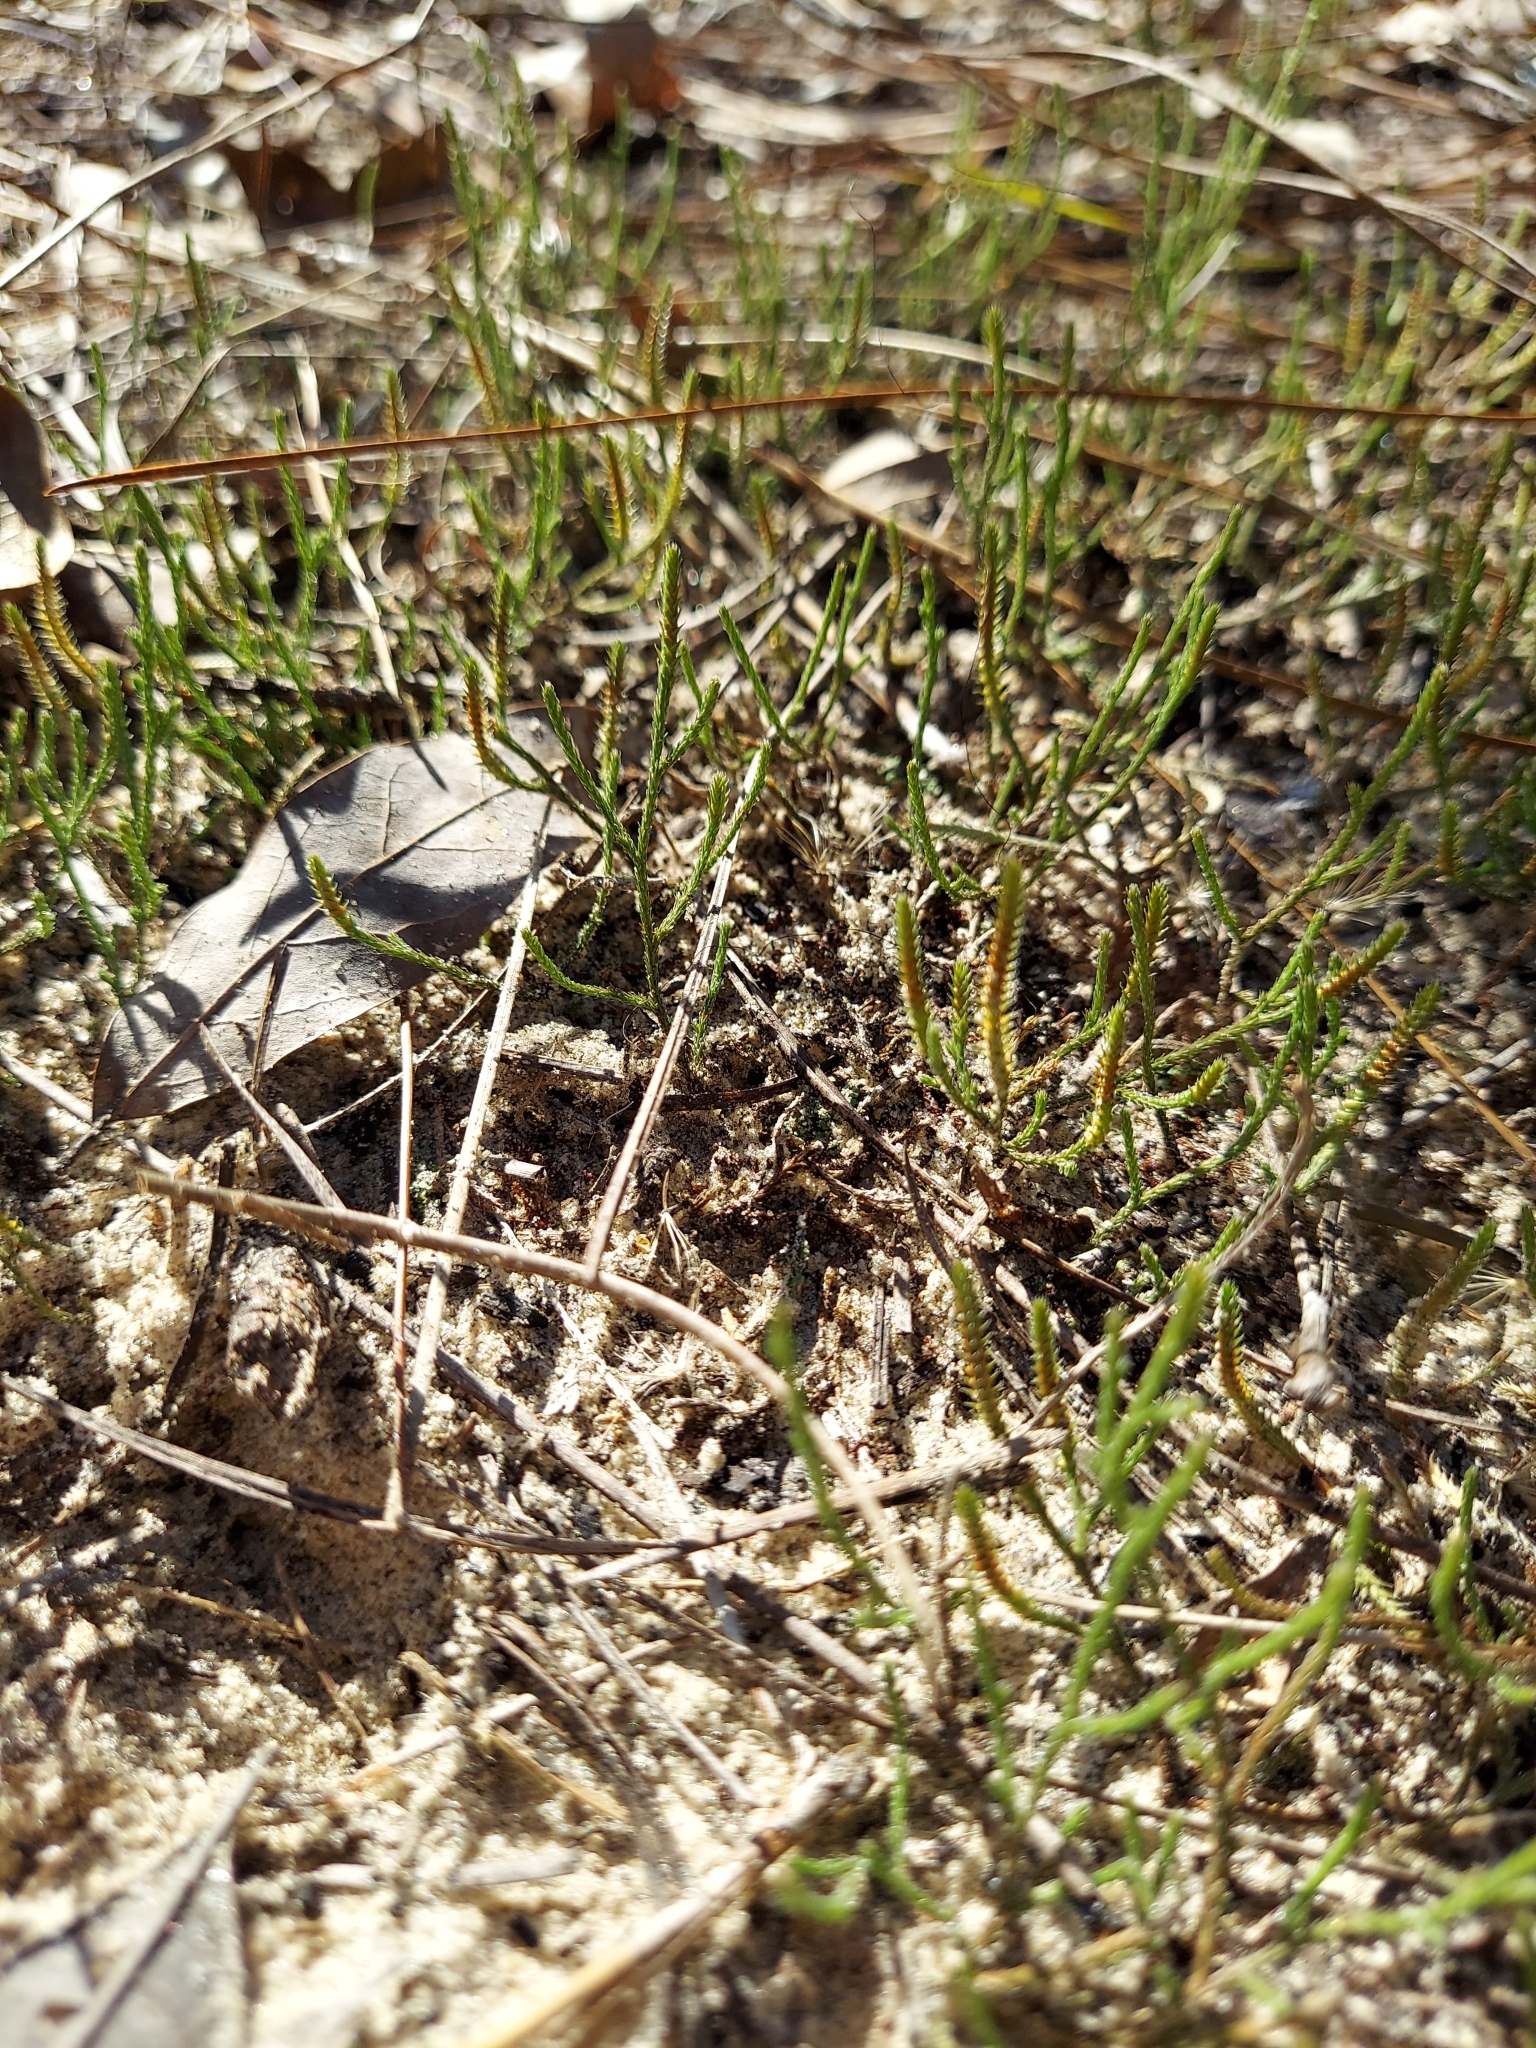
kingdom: Plantae
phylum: Tracheophyta
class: Lycopodiopsida
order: Selaginellales
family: Selaginellaceae
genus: Selaginella
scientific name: Selaginella arenicola
